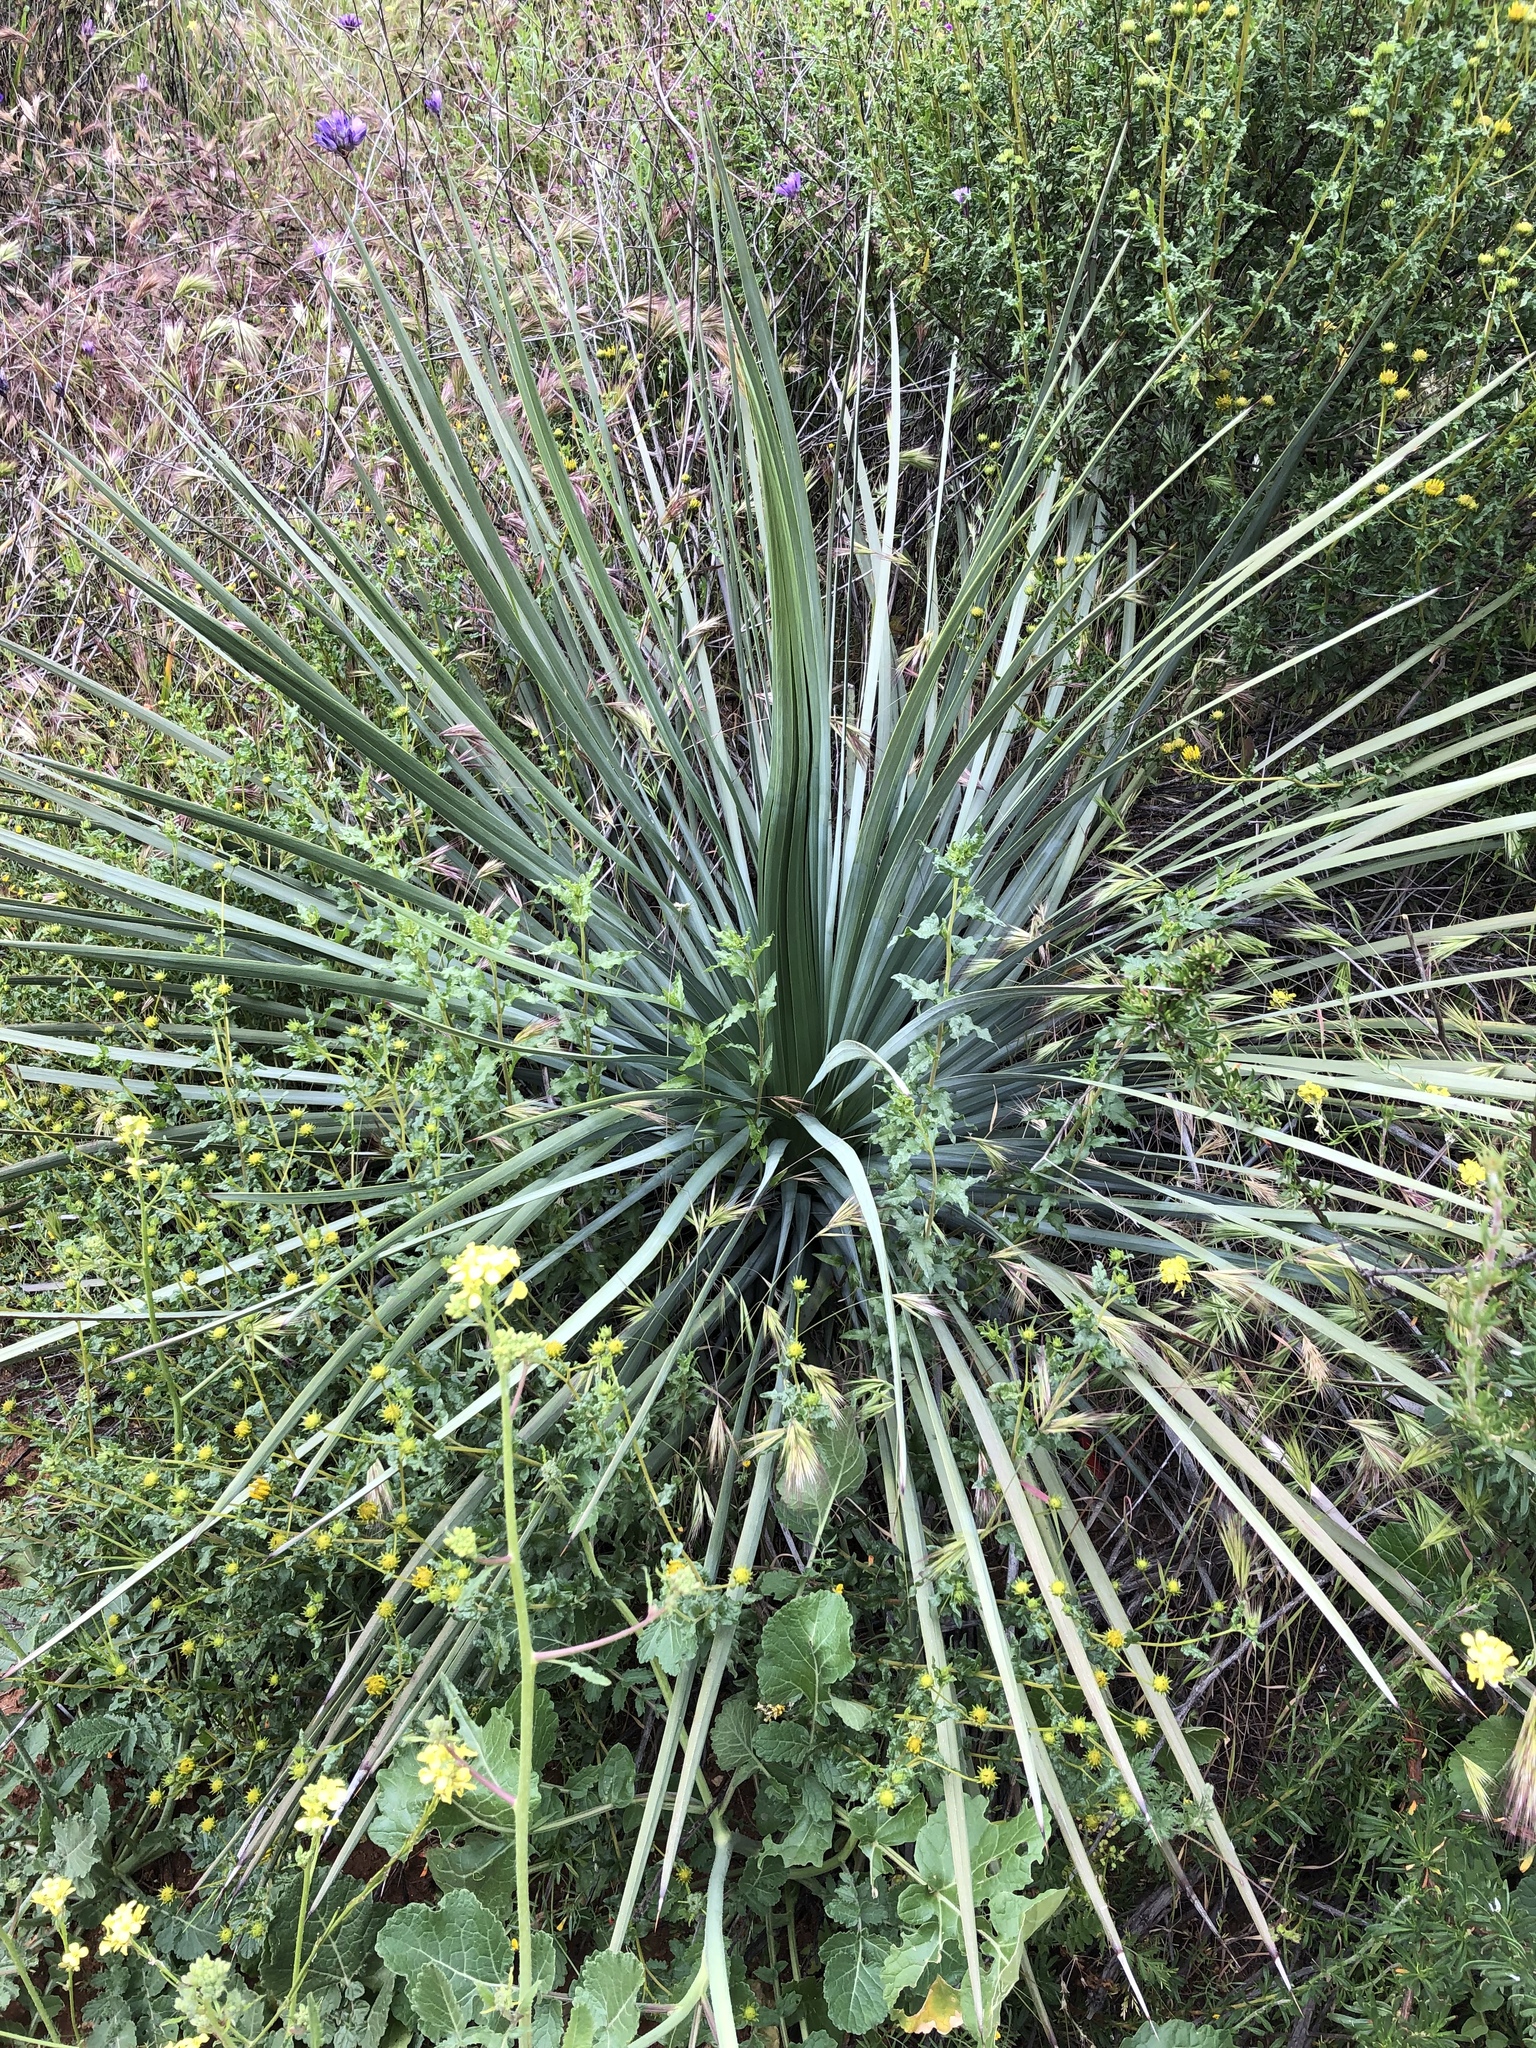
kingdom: Plantae
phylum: Tracheophyta
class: Liliopsida
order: Asparagales
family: Asparagaceae
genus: Hesperoyucca
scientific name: Hesperoyucca whipplei
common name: Our lord's-candle
